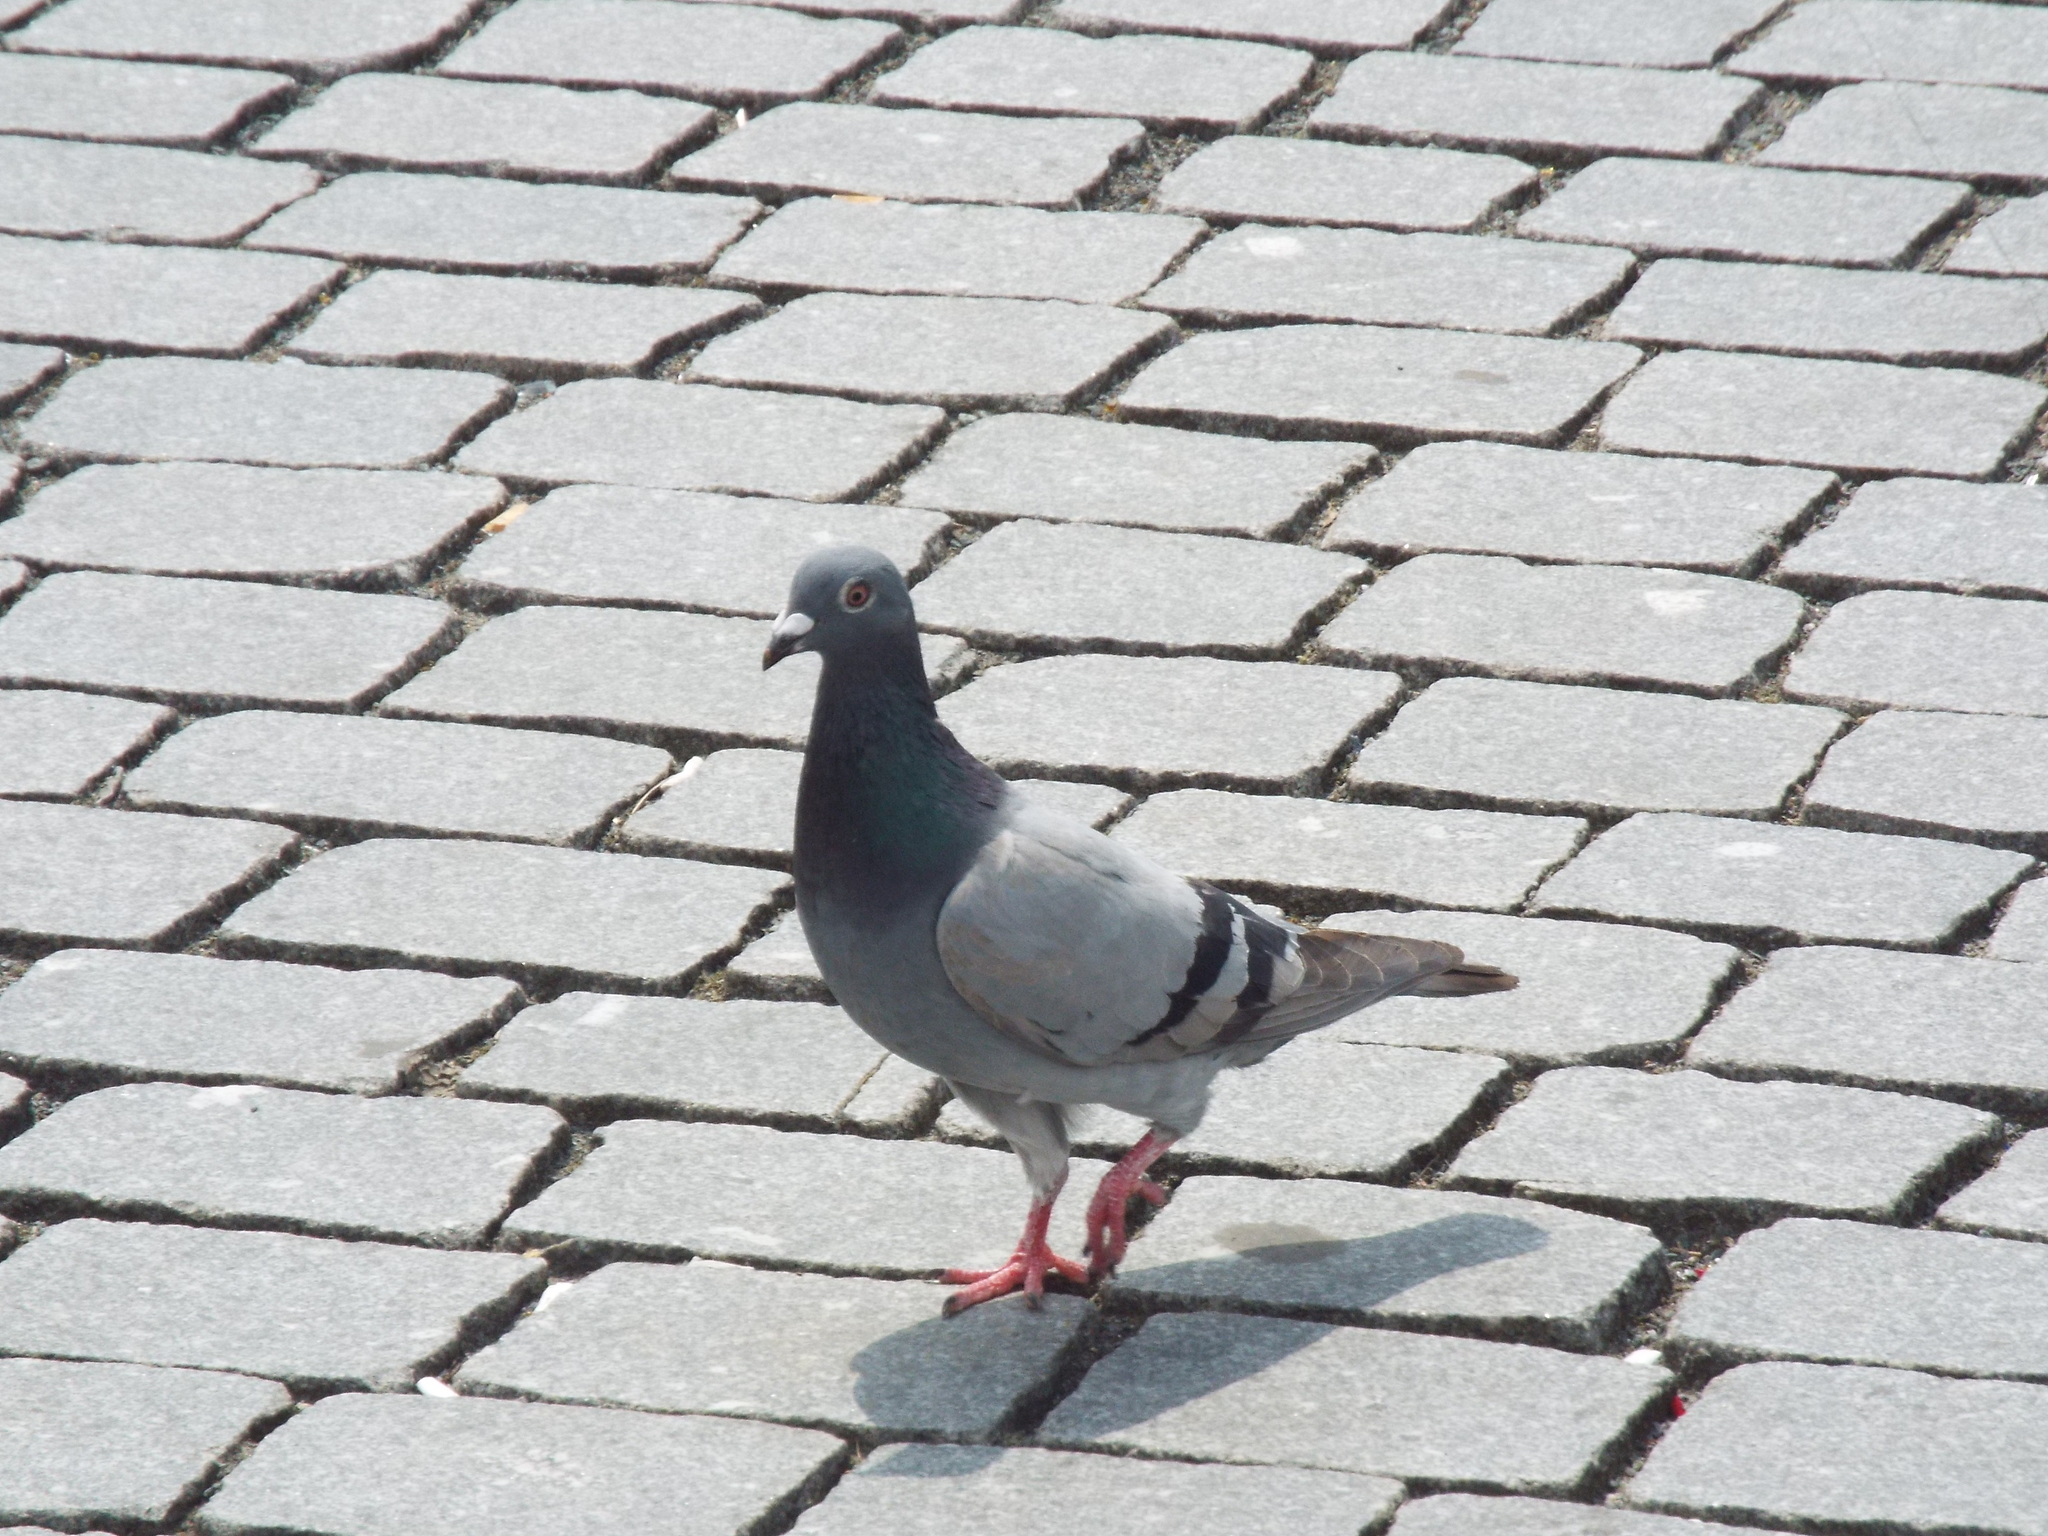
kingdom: Animalia
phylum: Chordata
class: Aves
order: Columbiformes
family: Columbidae
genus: Columba
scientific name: Columba livia
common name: Rock pigeon
